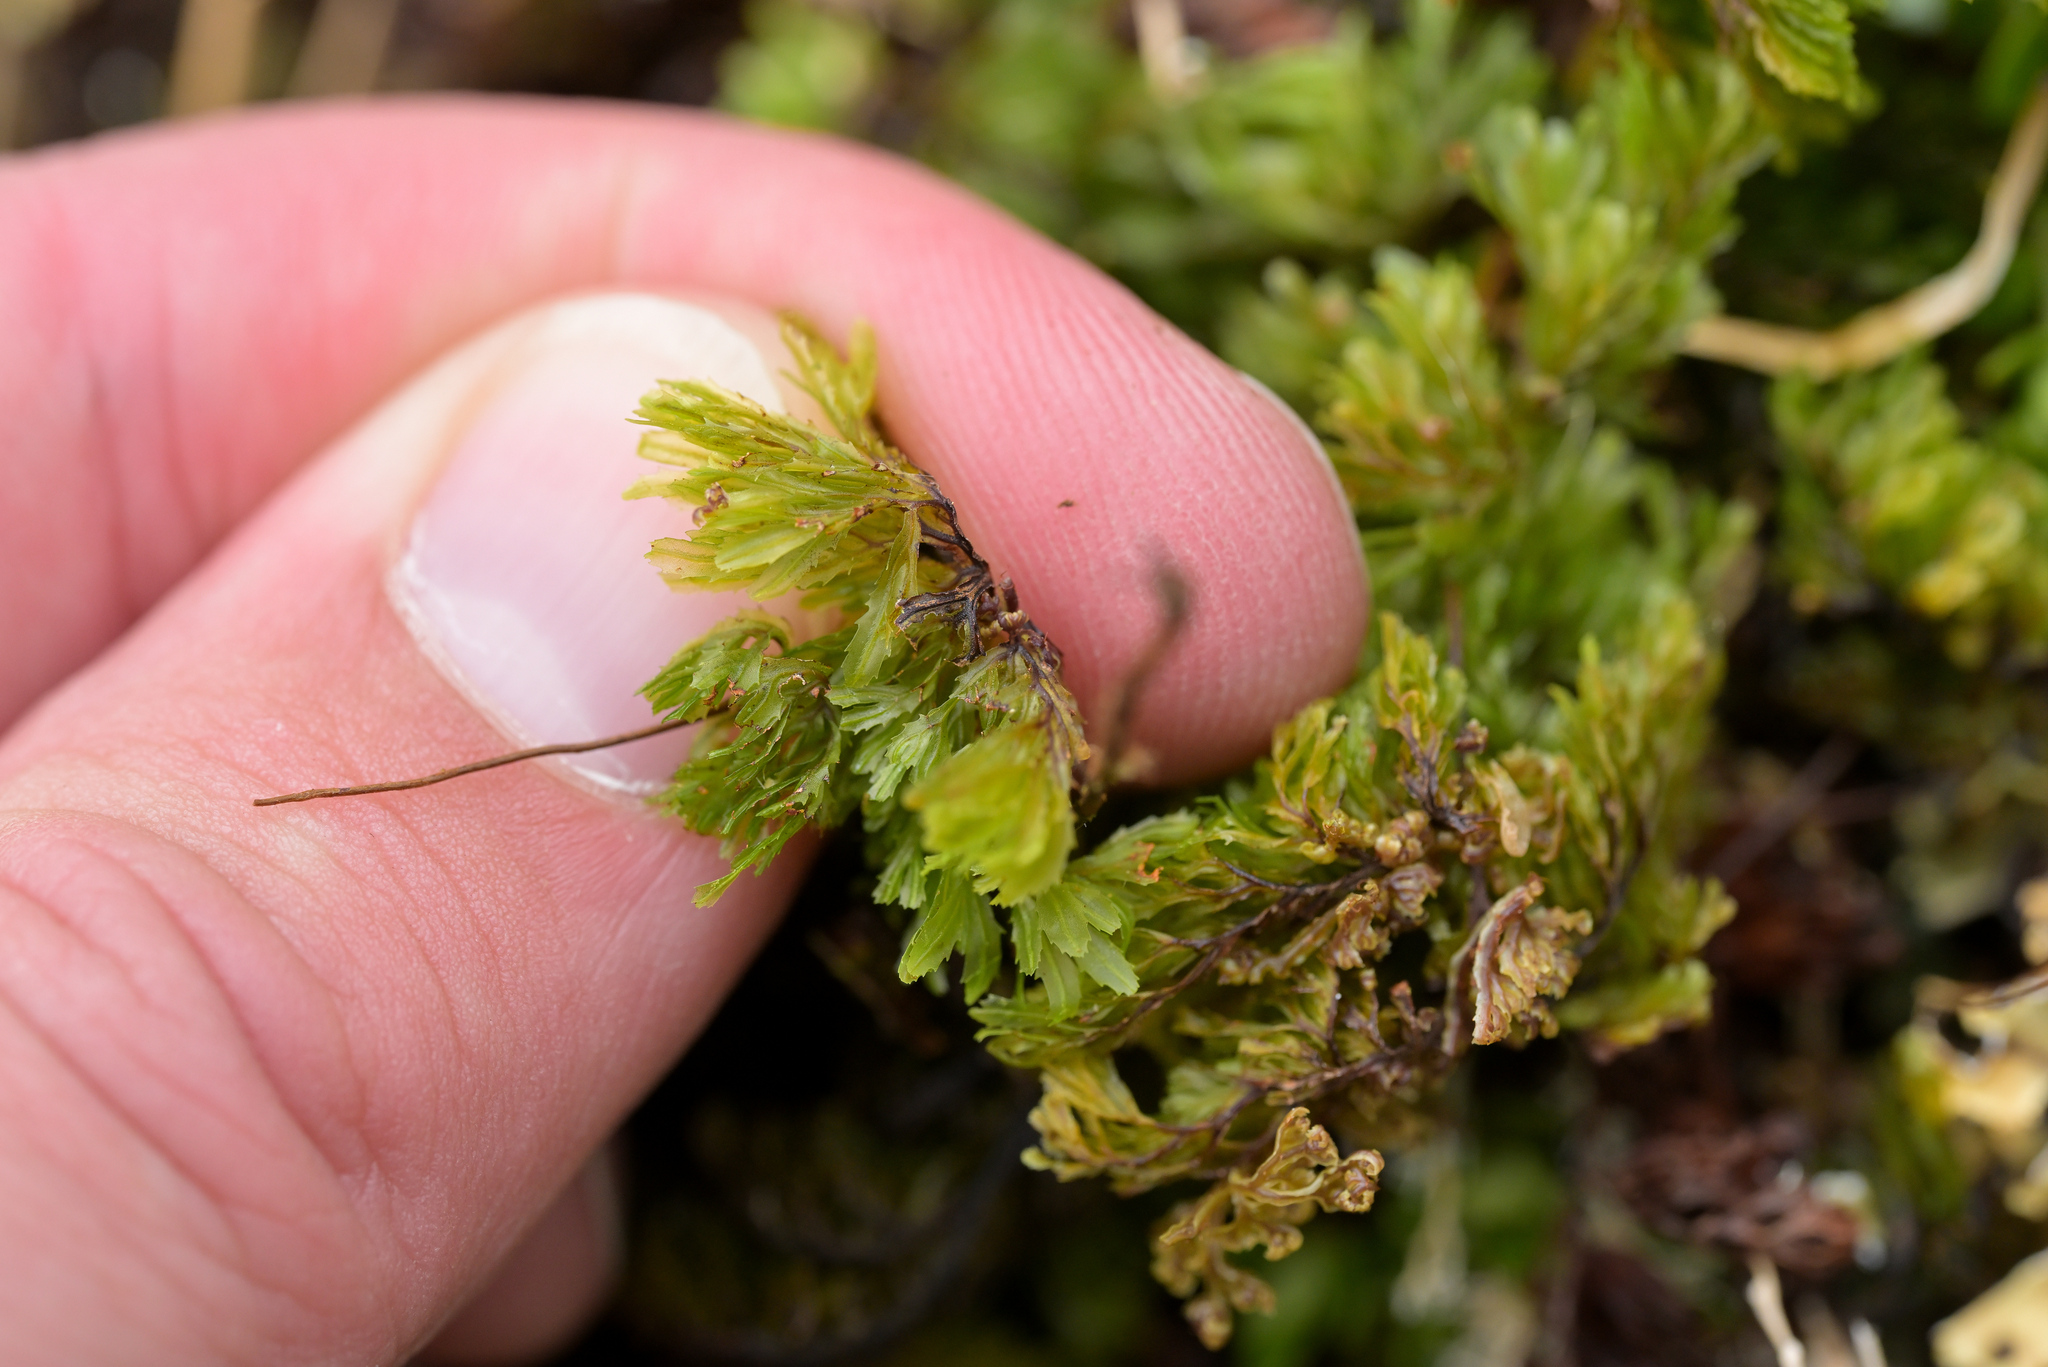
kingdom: Plantae
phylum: Tracheophyta
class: Polypodiopsida
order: Hymenophyllales
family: Hymenophyllaceae
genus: Hymenophyllum
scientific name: Hymenophyllum multifidum
